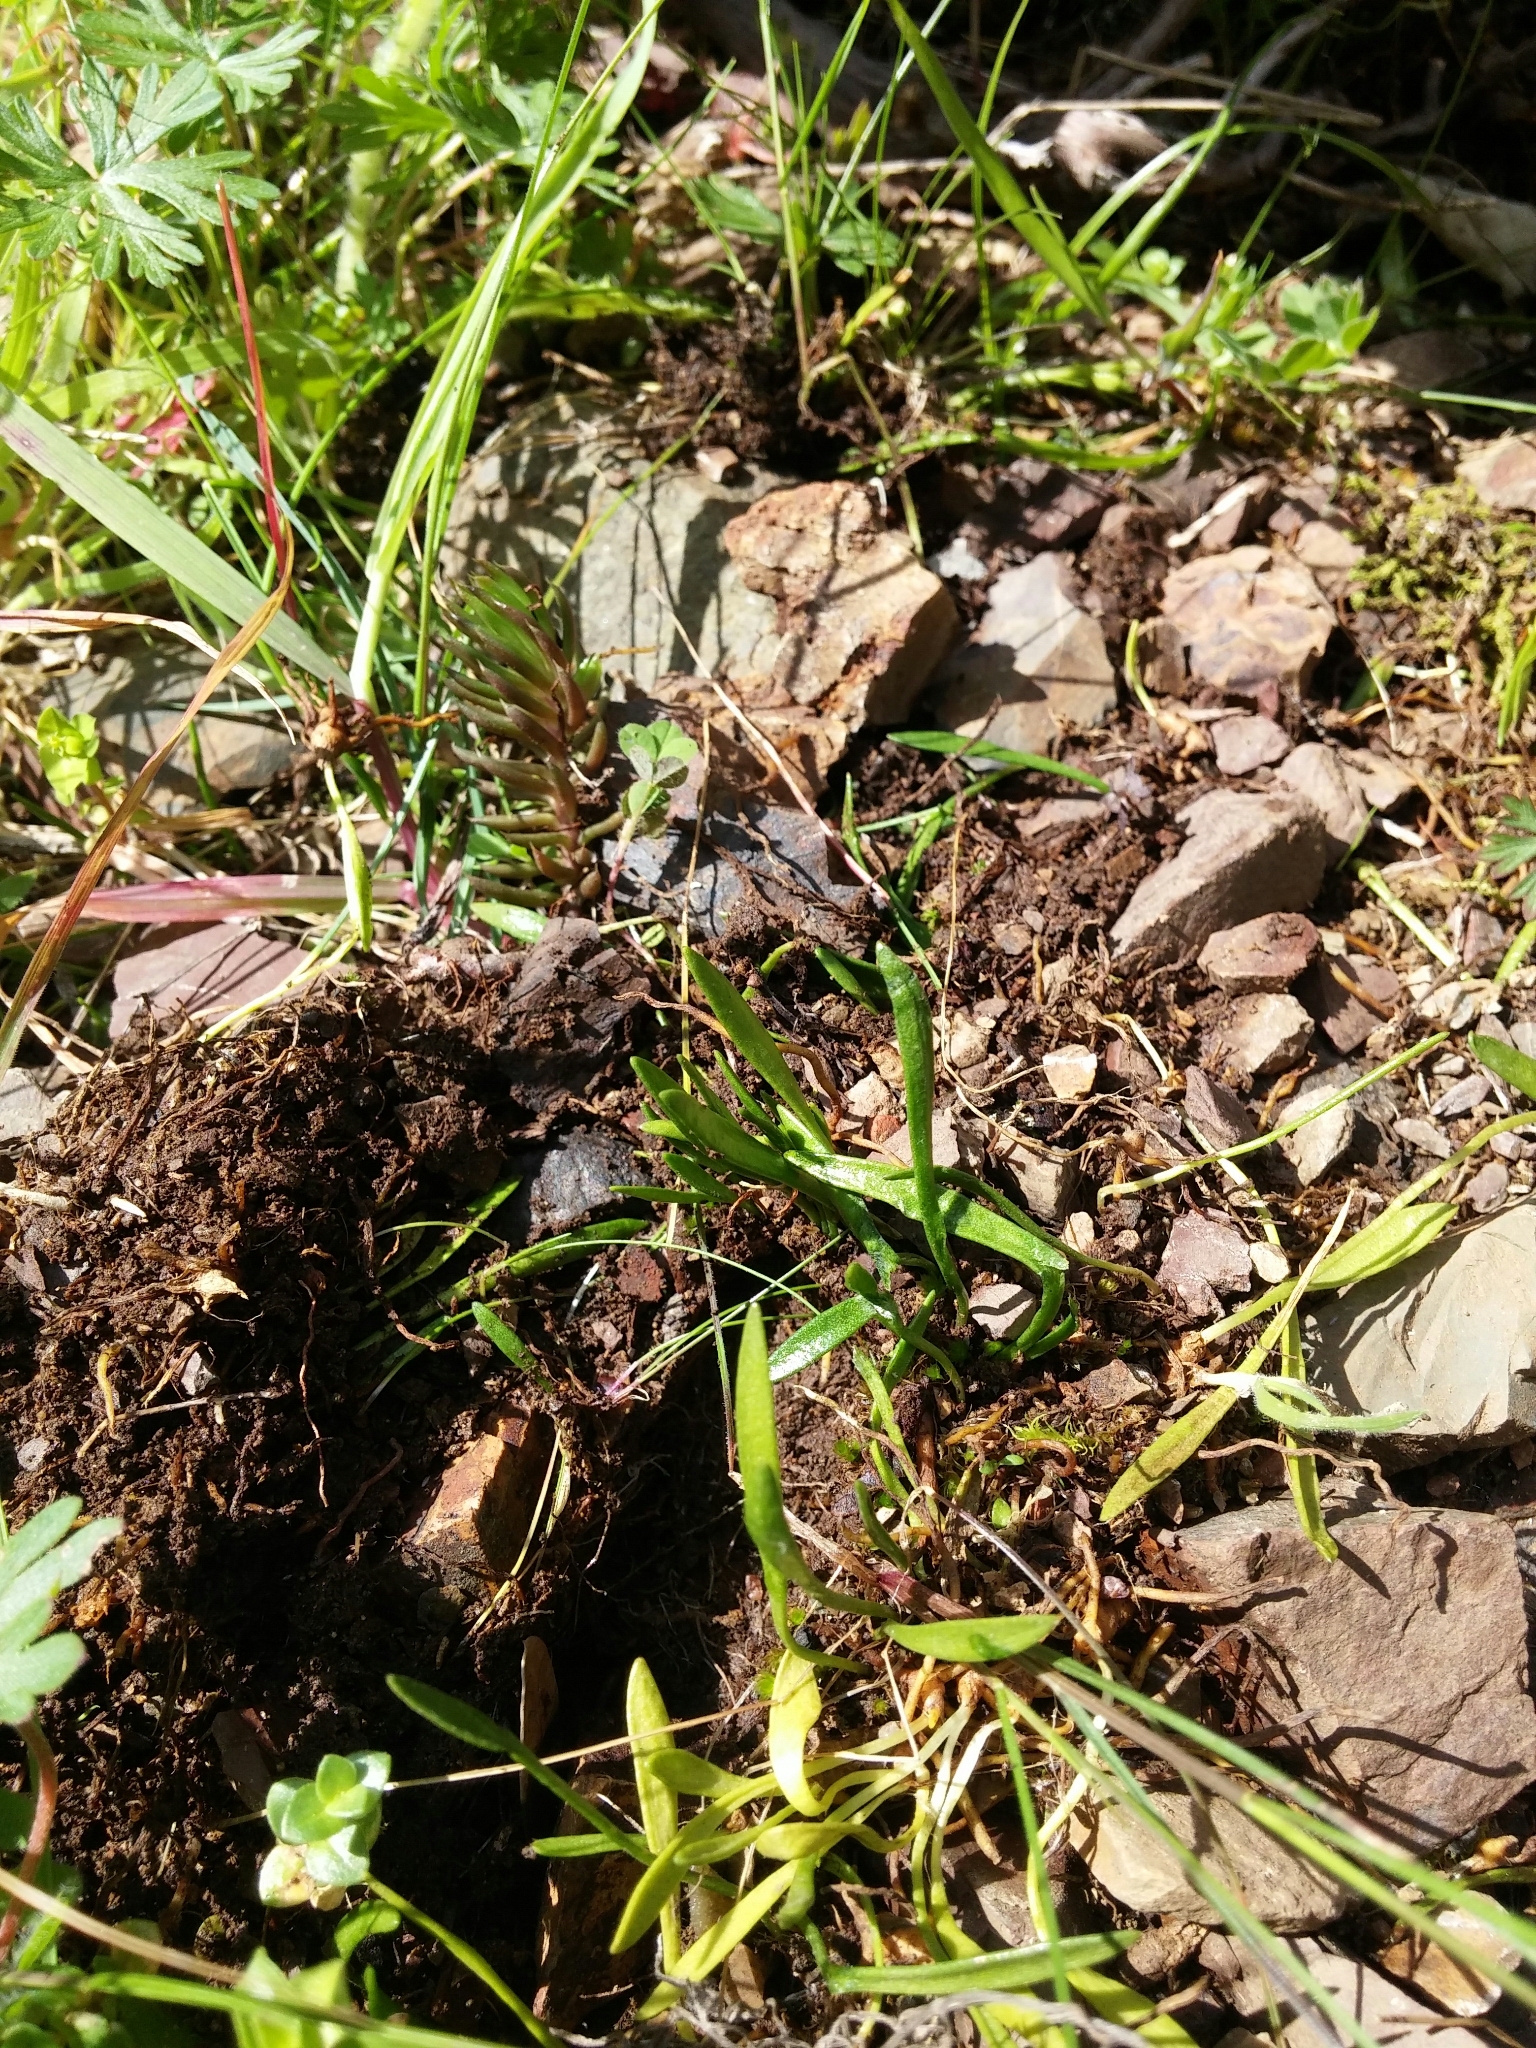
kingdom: Plantae
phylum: Tracheophyta
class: Polypodiopsida
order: Ophioglossales
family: Ophioglossaceae
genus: Ophioglossum
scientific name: Ophioglossum lusitanicum
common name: Least adder's-tongue
